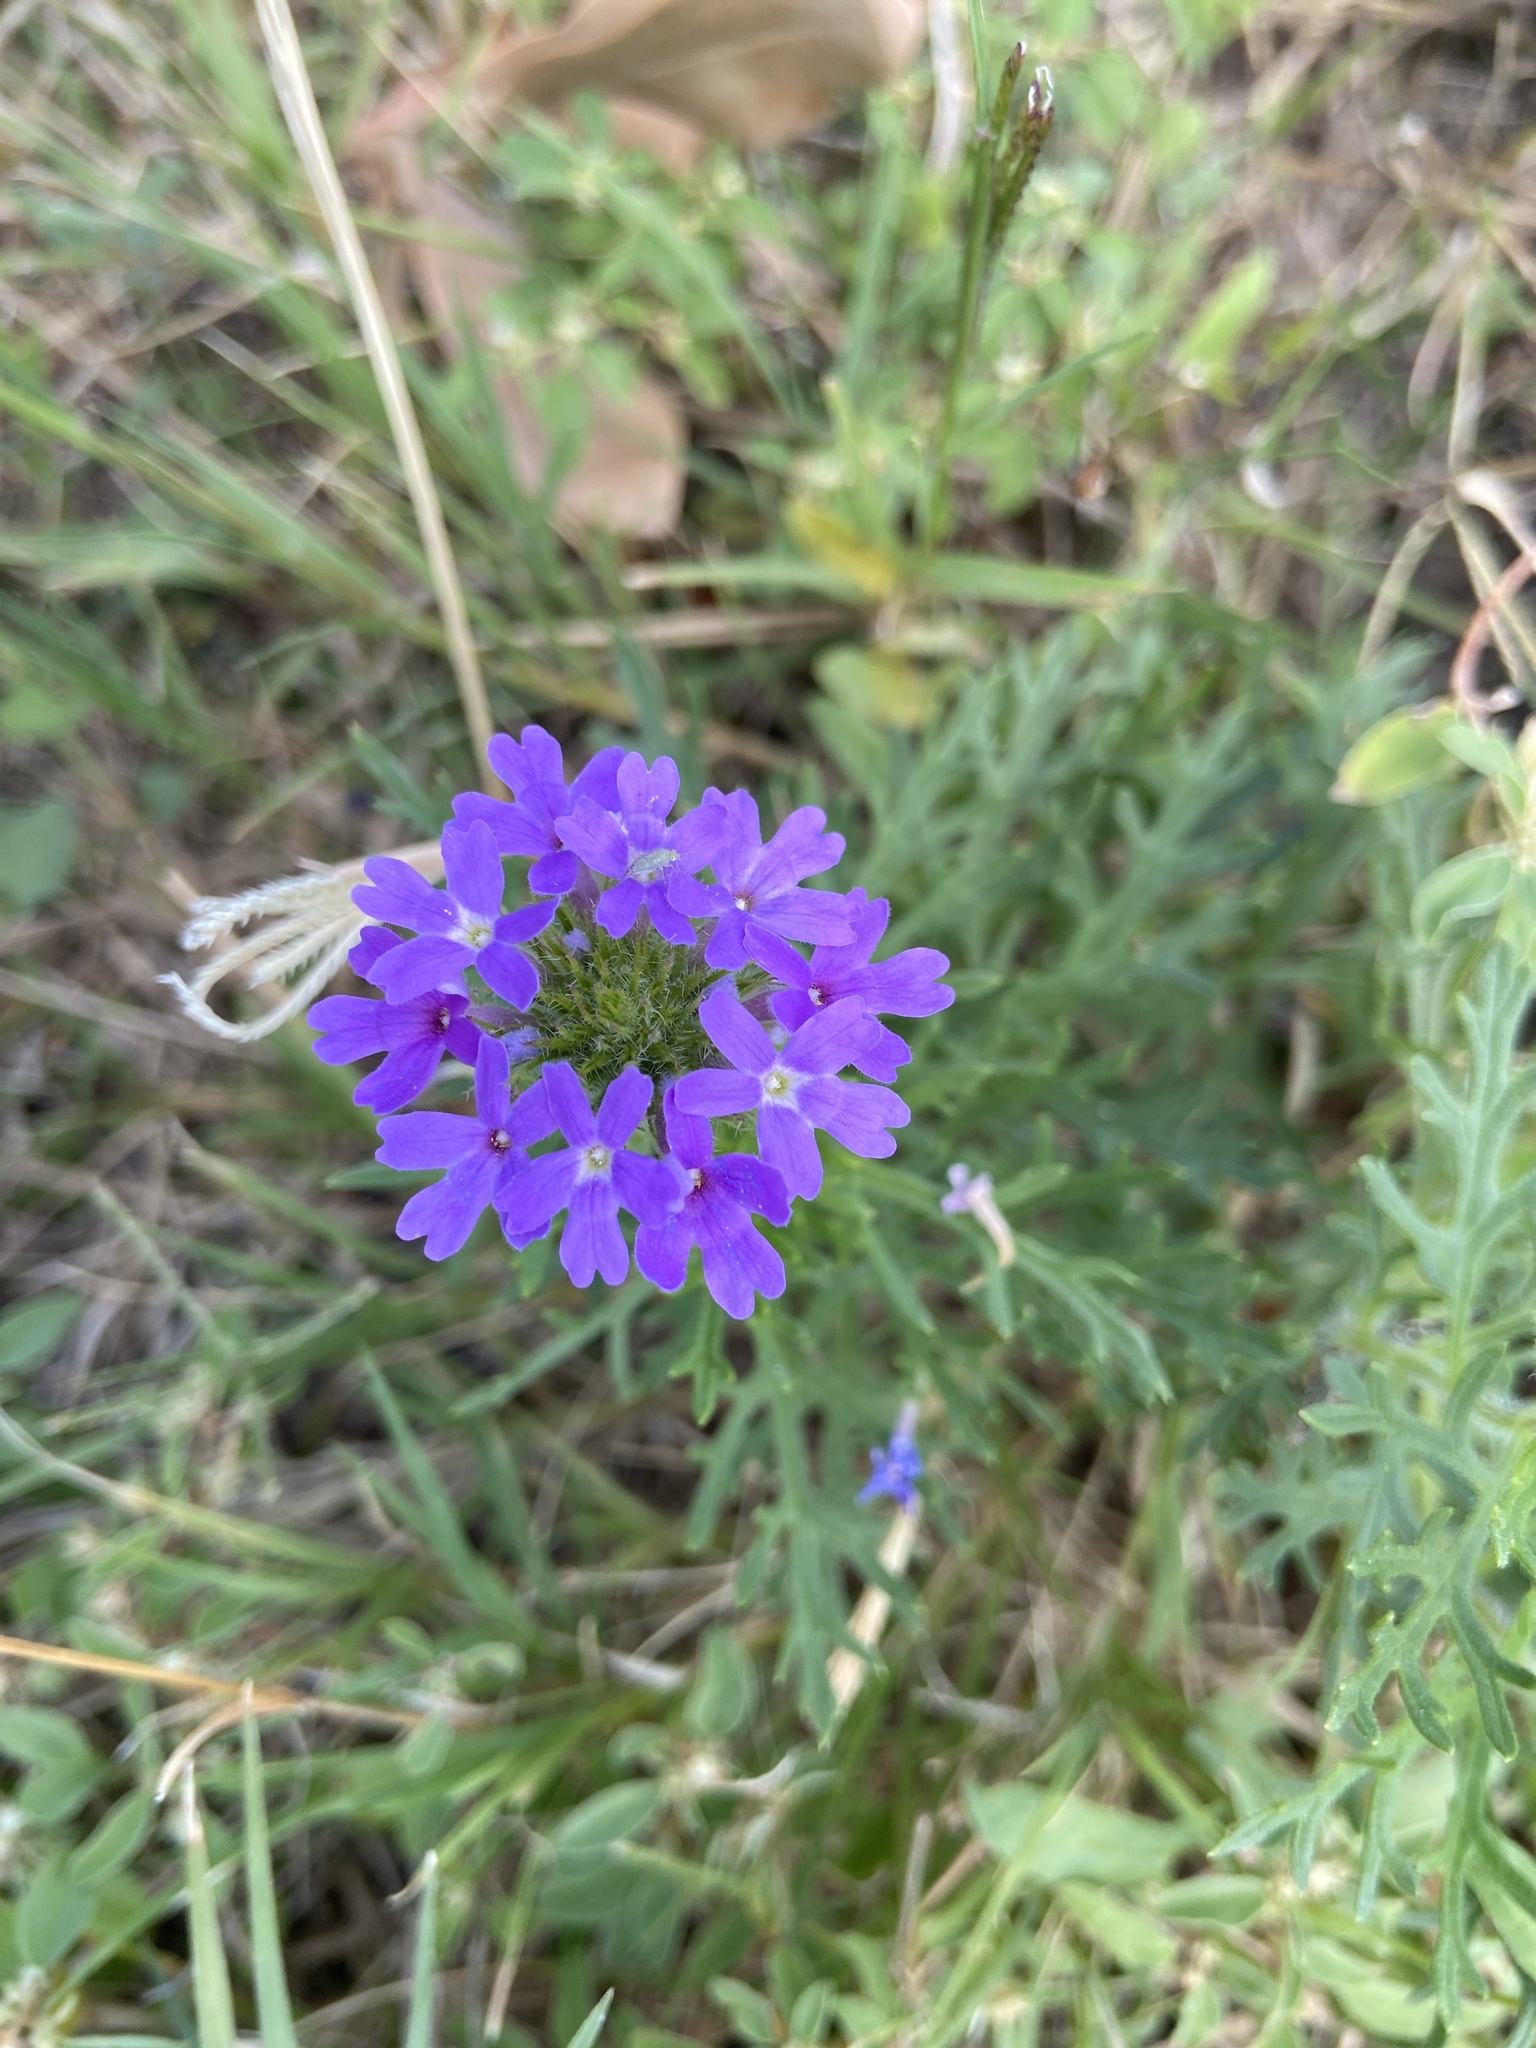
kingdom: Plantae
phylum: Tracheophyta
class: Magnoliopsida
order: Lamiales
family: Verbenaceae
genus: Verbena
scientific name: Verbena bipinnatifida
